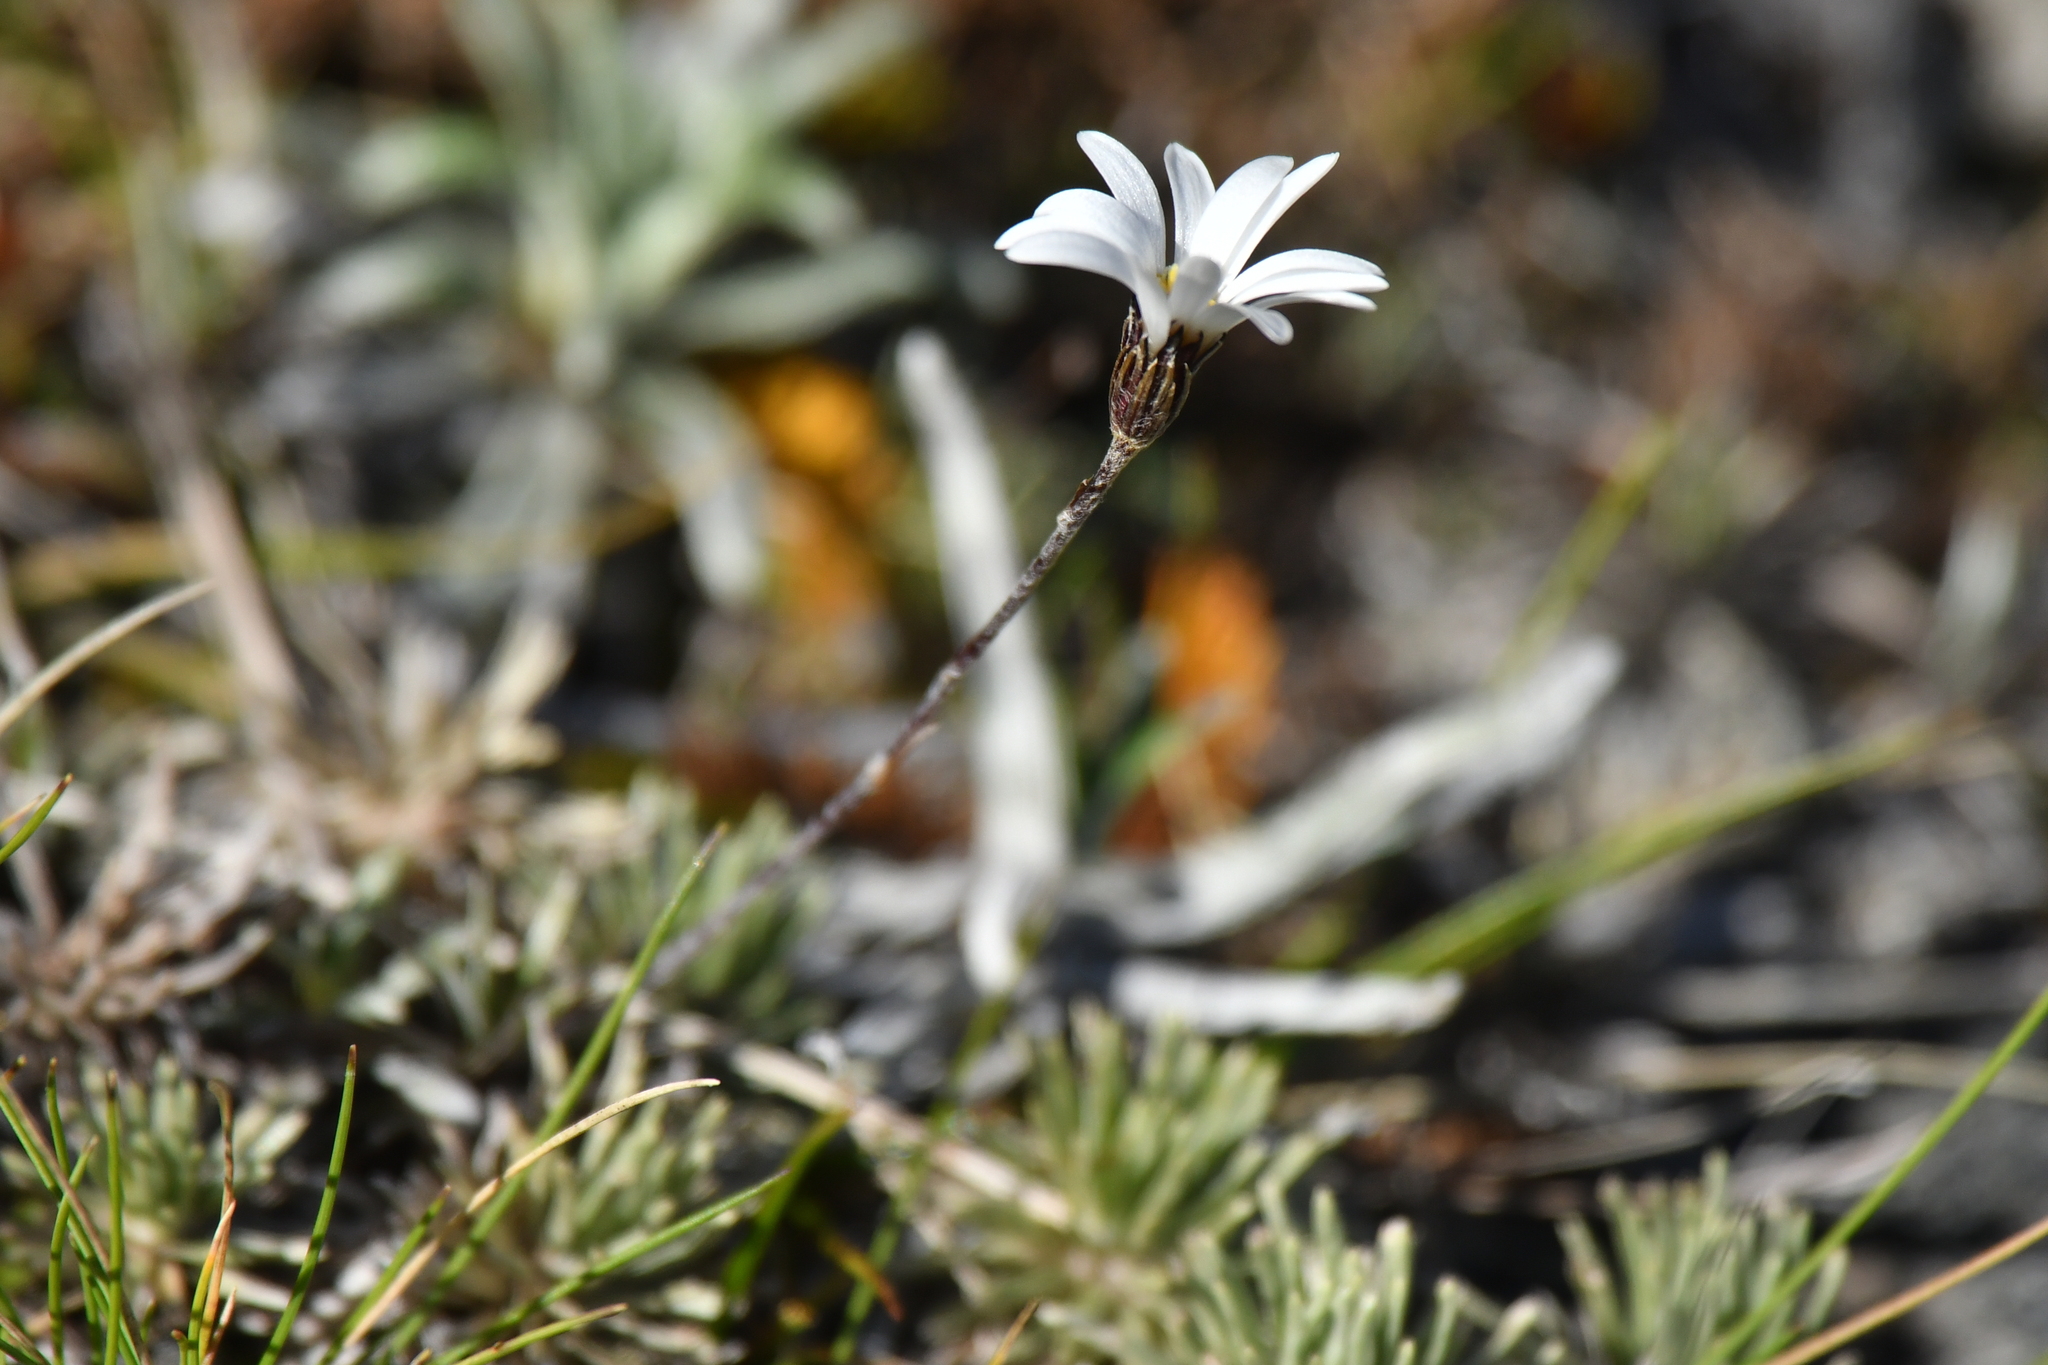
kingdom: Plantae
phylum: Tracheophyta
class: Magnoliopsida
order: Asterales
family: Asteraceae
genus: Celmisia
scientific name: Celmisia laricifolia
